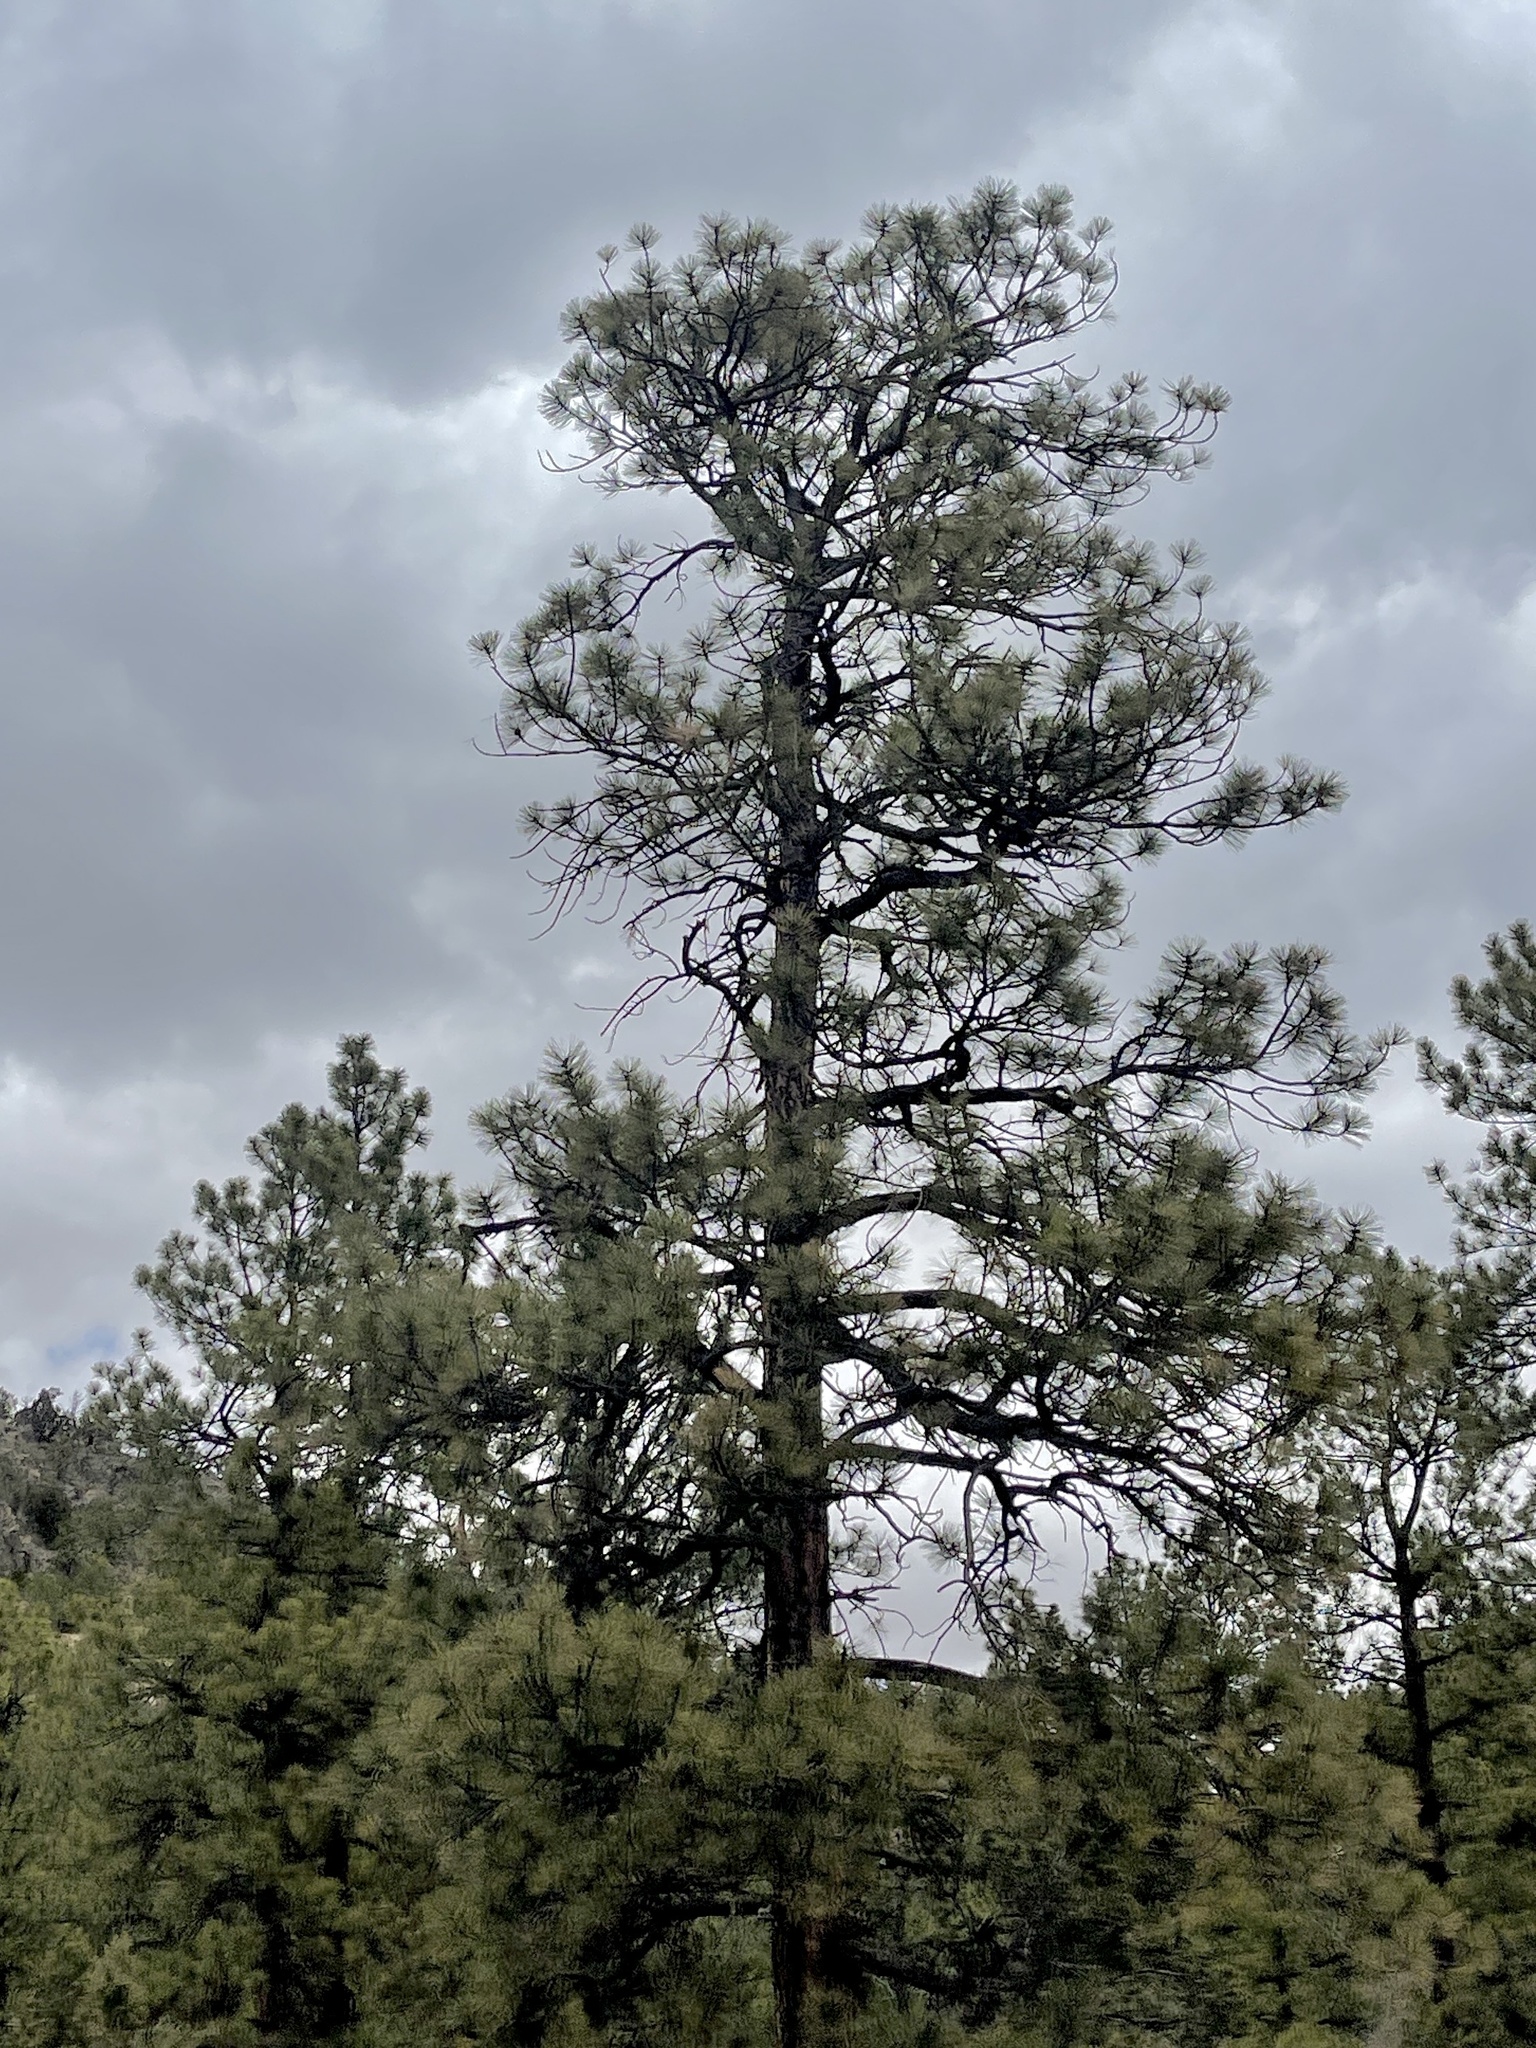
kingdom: Plantae
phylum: Tracheophyta
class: Pinopsida
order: Pinales
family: Pinaceae
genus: Pinus
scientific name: Pinus ponderosa
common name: Western yellow-pine
